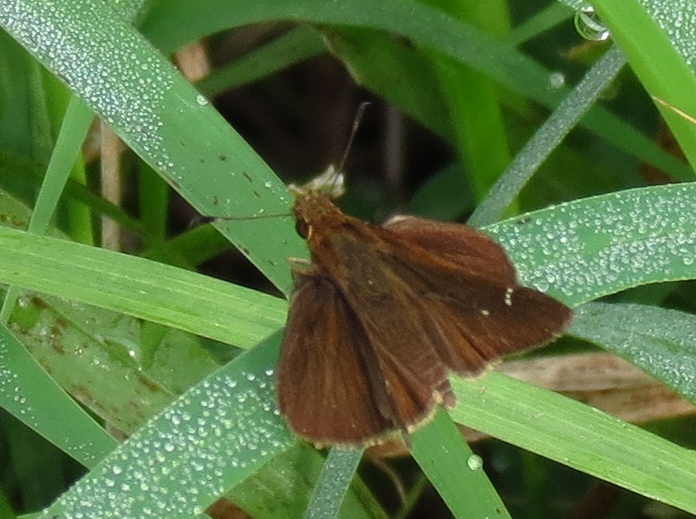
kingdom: Animalia
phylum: Arthropoda
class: Insecta
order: Lepidoptera
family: Hesperiidae
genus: Lerema
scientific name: Lerema accius
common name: Clouded skipper
